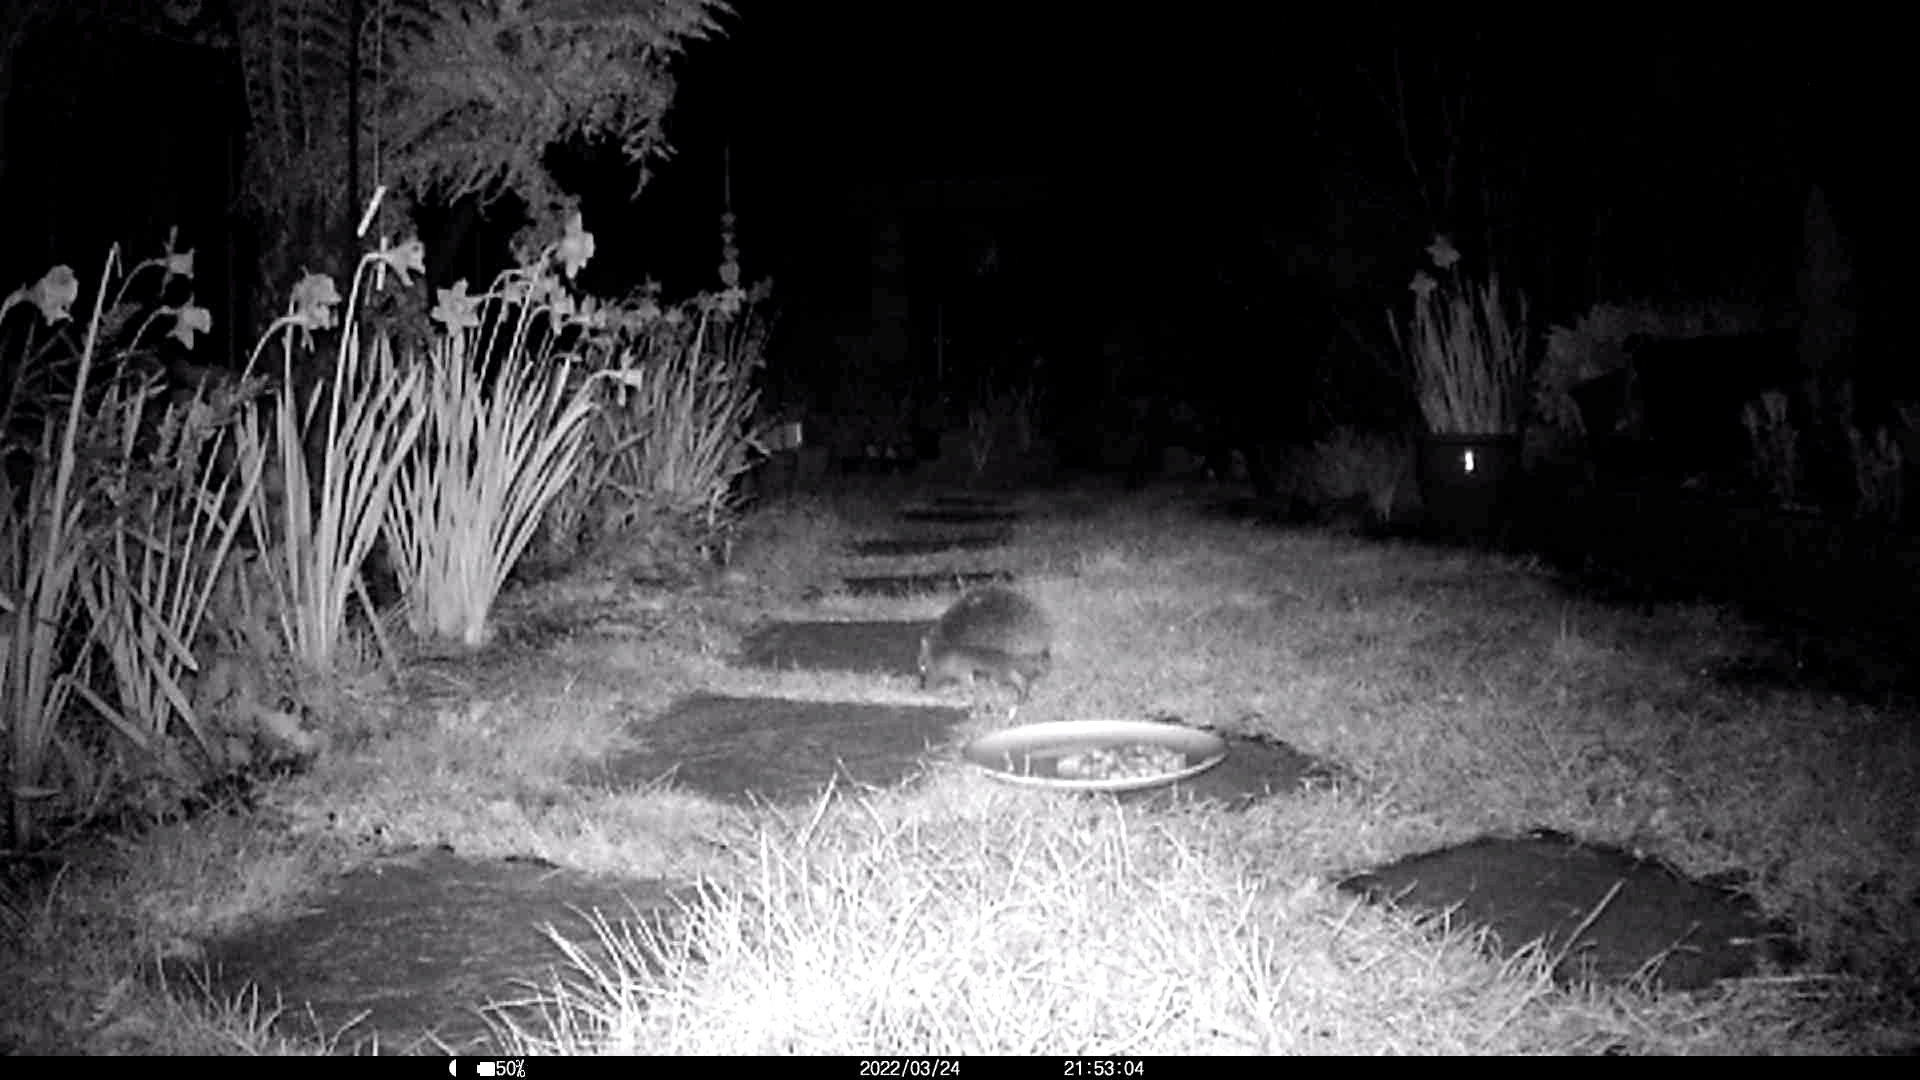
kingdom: Animalia
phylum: Chordata
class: Mammalia
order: Erinaceomorpha
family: Erinaceidae
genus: Erinaceus
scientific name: Erinaceus europaeus
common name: West european hedgehog
